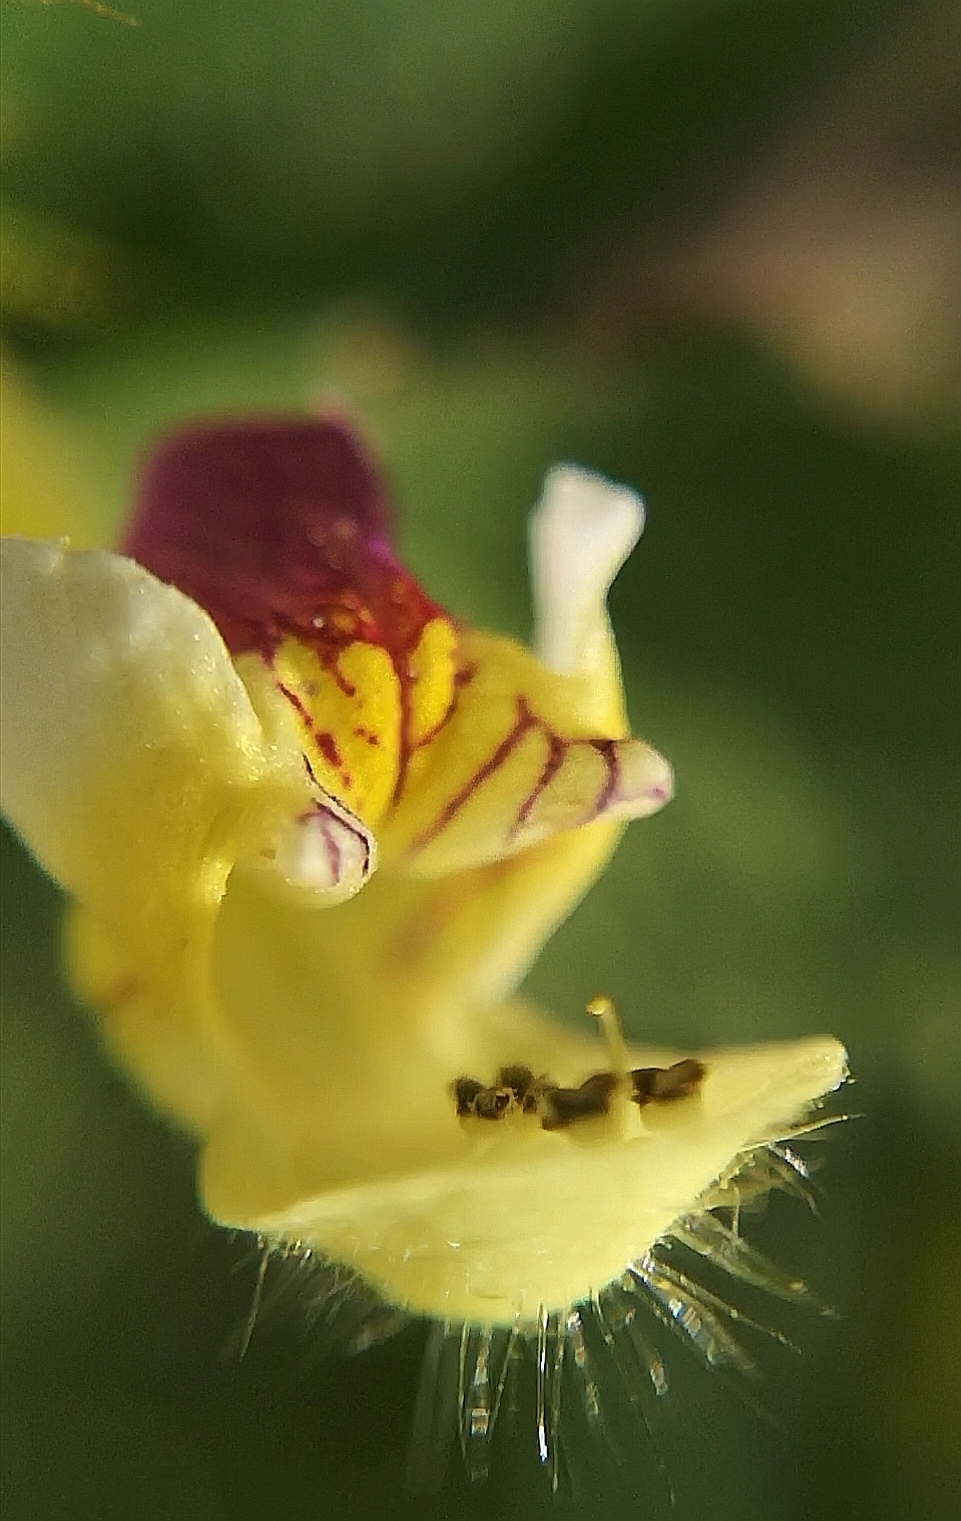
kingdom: Plantae
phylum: Tracheophyta
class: Magnoliopsida
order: Lamiales
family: Lamiaceae
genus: Galeopsis
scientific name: Galeopsis speciosa
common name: Large-flowered hemp-nettle
